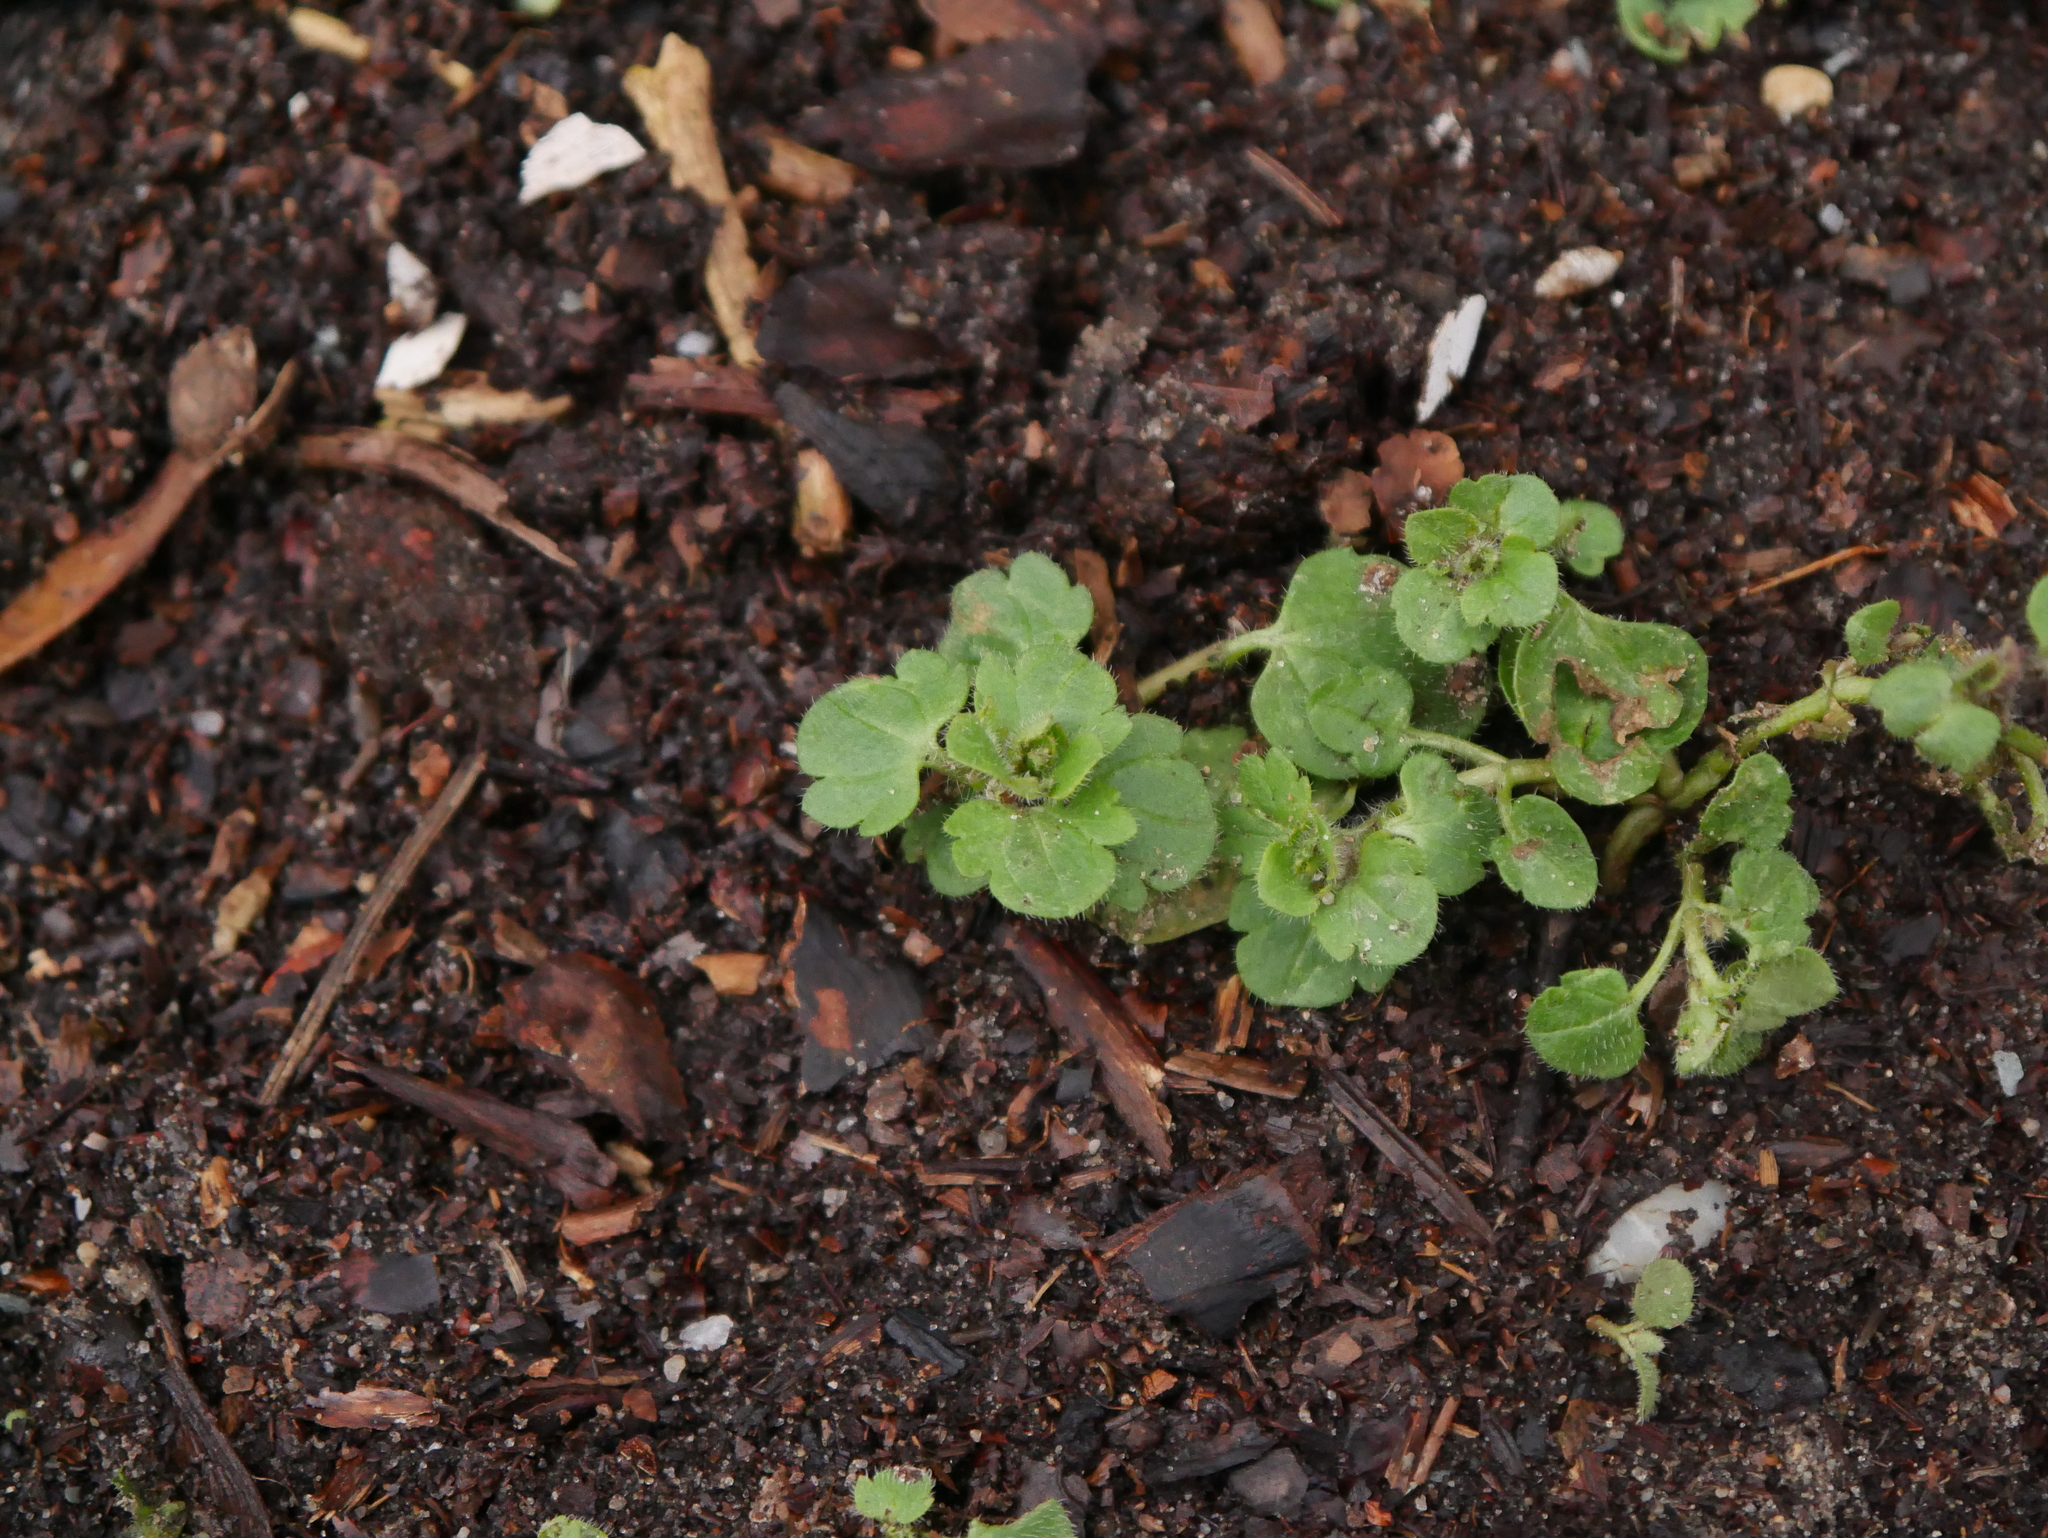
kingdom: Plantae
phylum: Tracheophyta
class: Magnoliopsida
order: Lamiales
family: Plantaginaceae
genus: Veronica
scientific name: Veronica hederifolia
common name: Ivy-leaved speedwell
